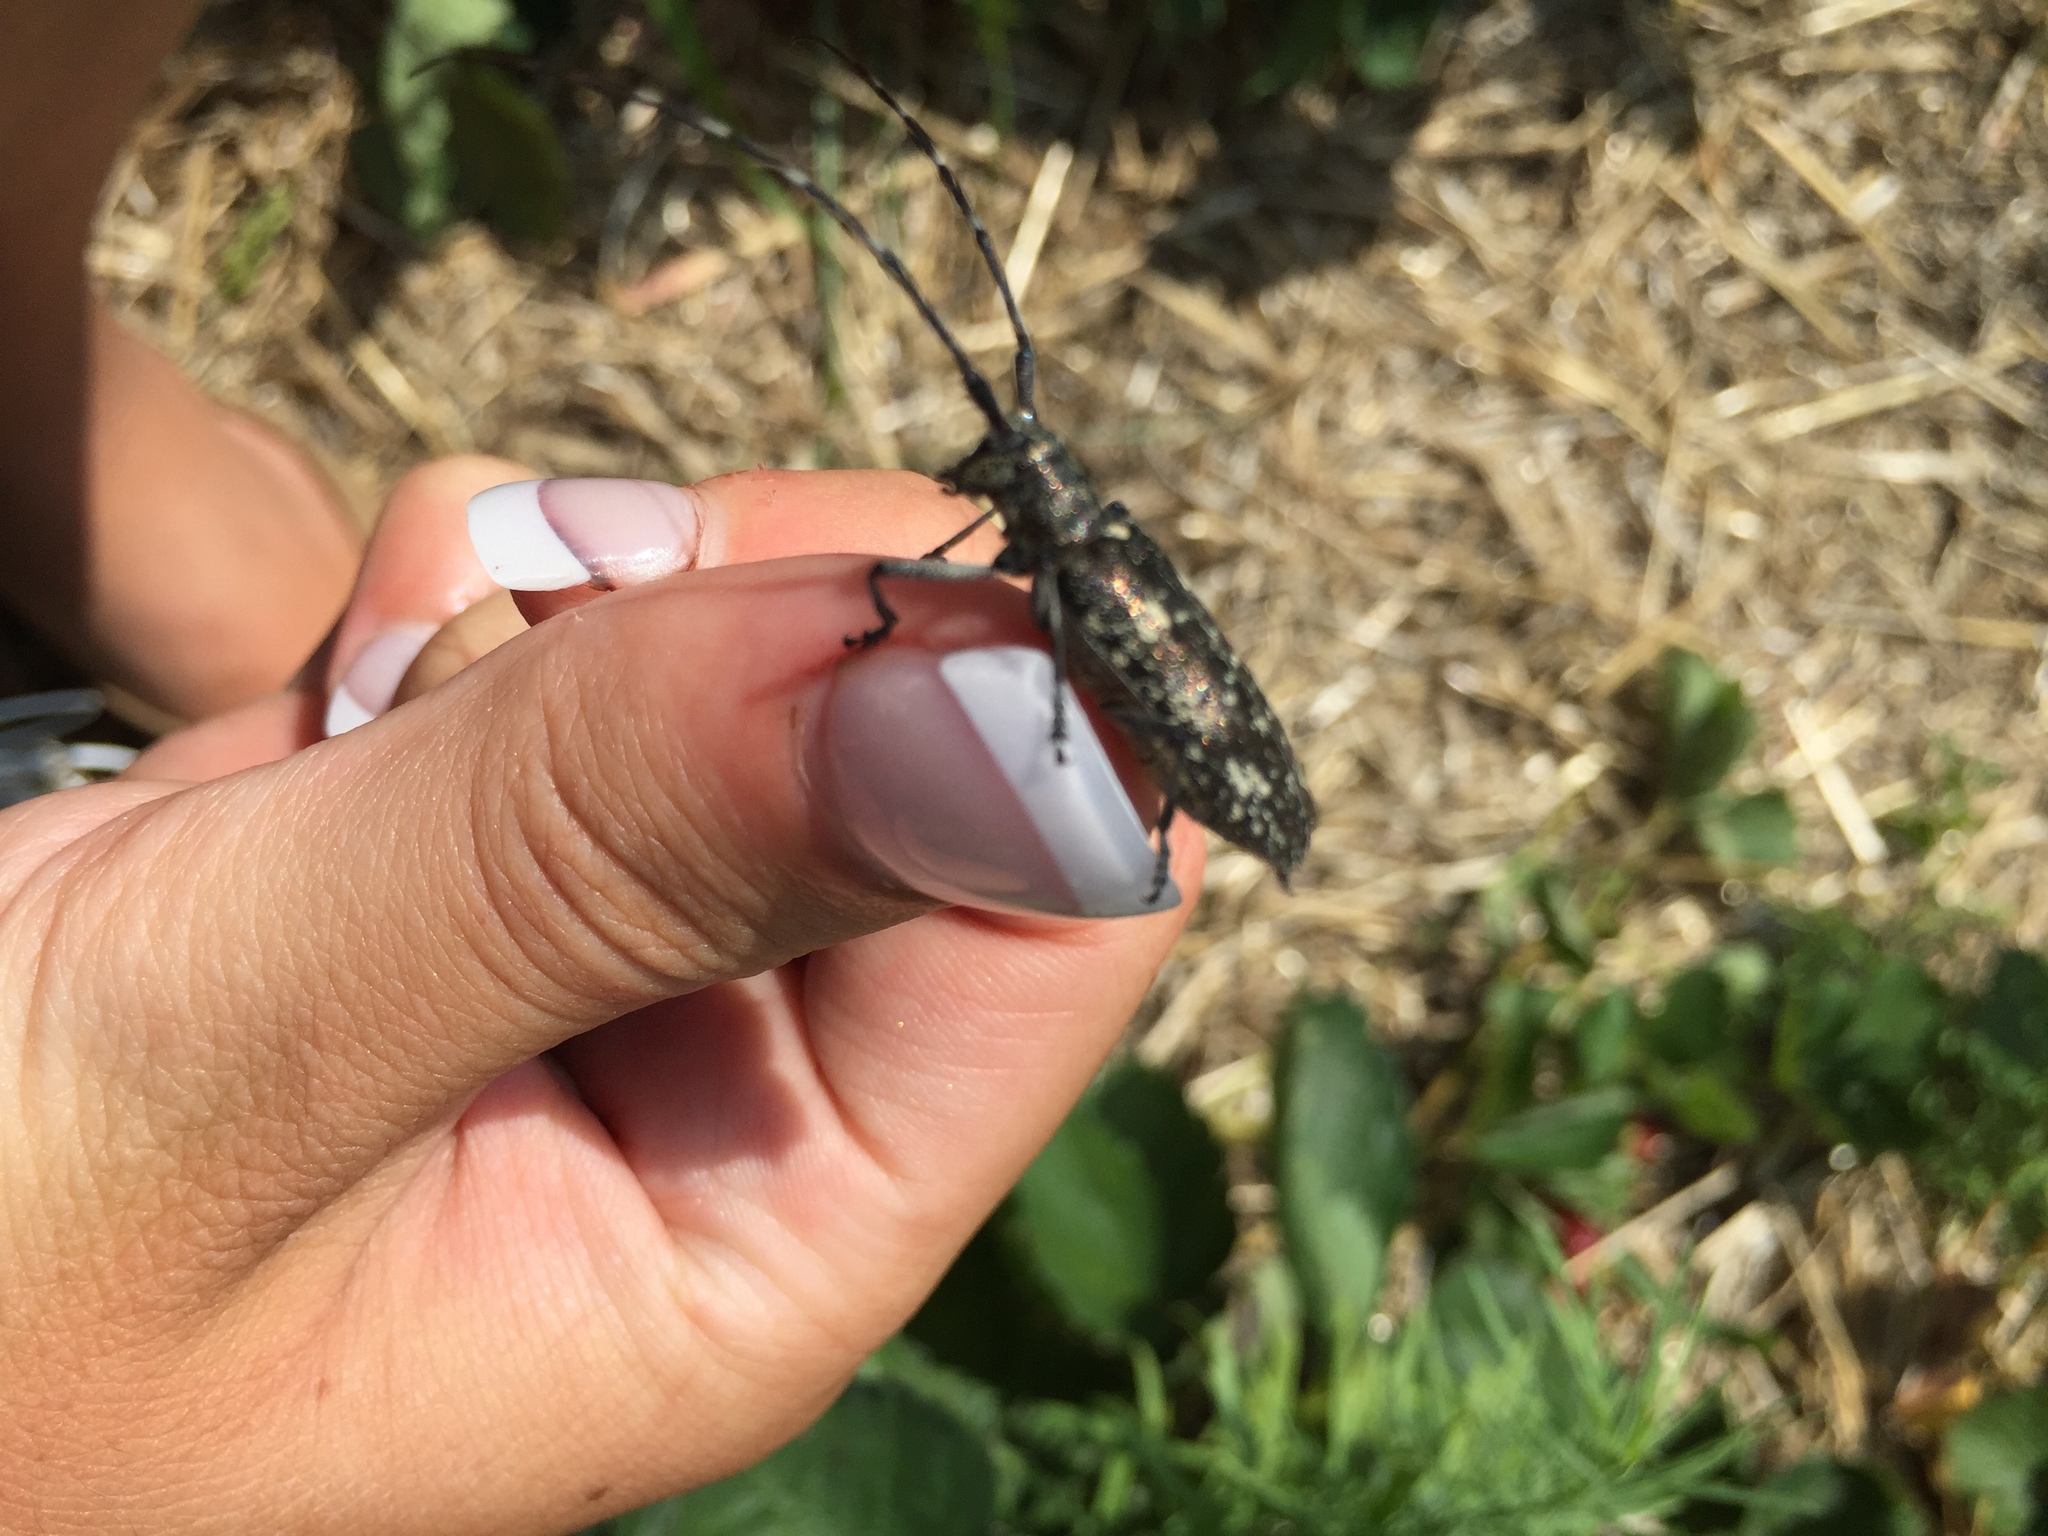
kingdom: Animalia
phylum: Arthropoda
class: Insecta
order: Coleoptera
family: Cerambycidae
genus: Monochamus
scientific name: Monochamus scutellatus
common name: White-spotted sawyer beetle
